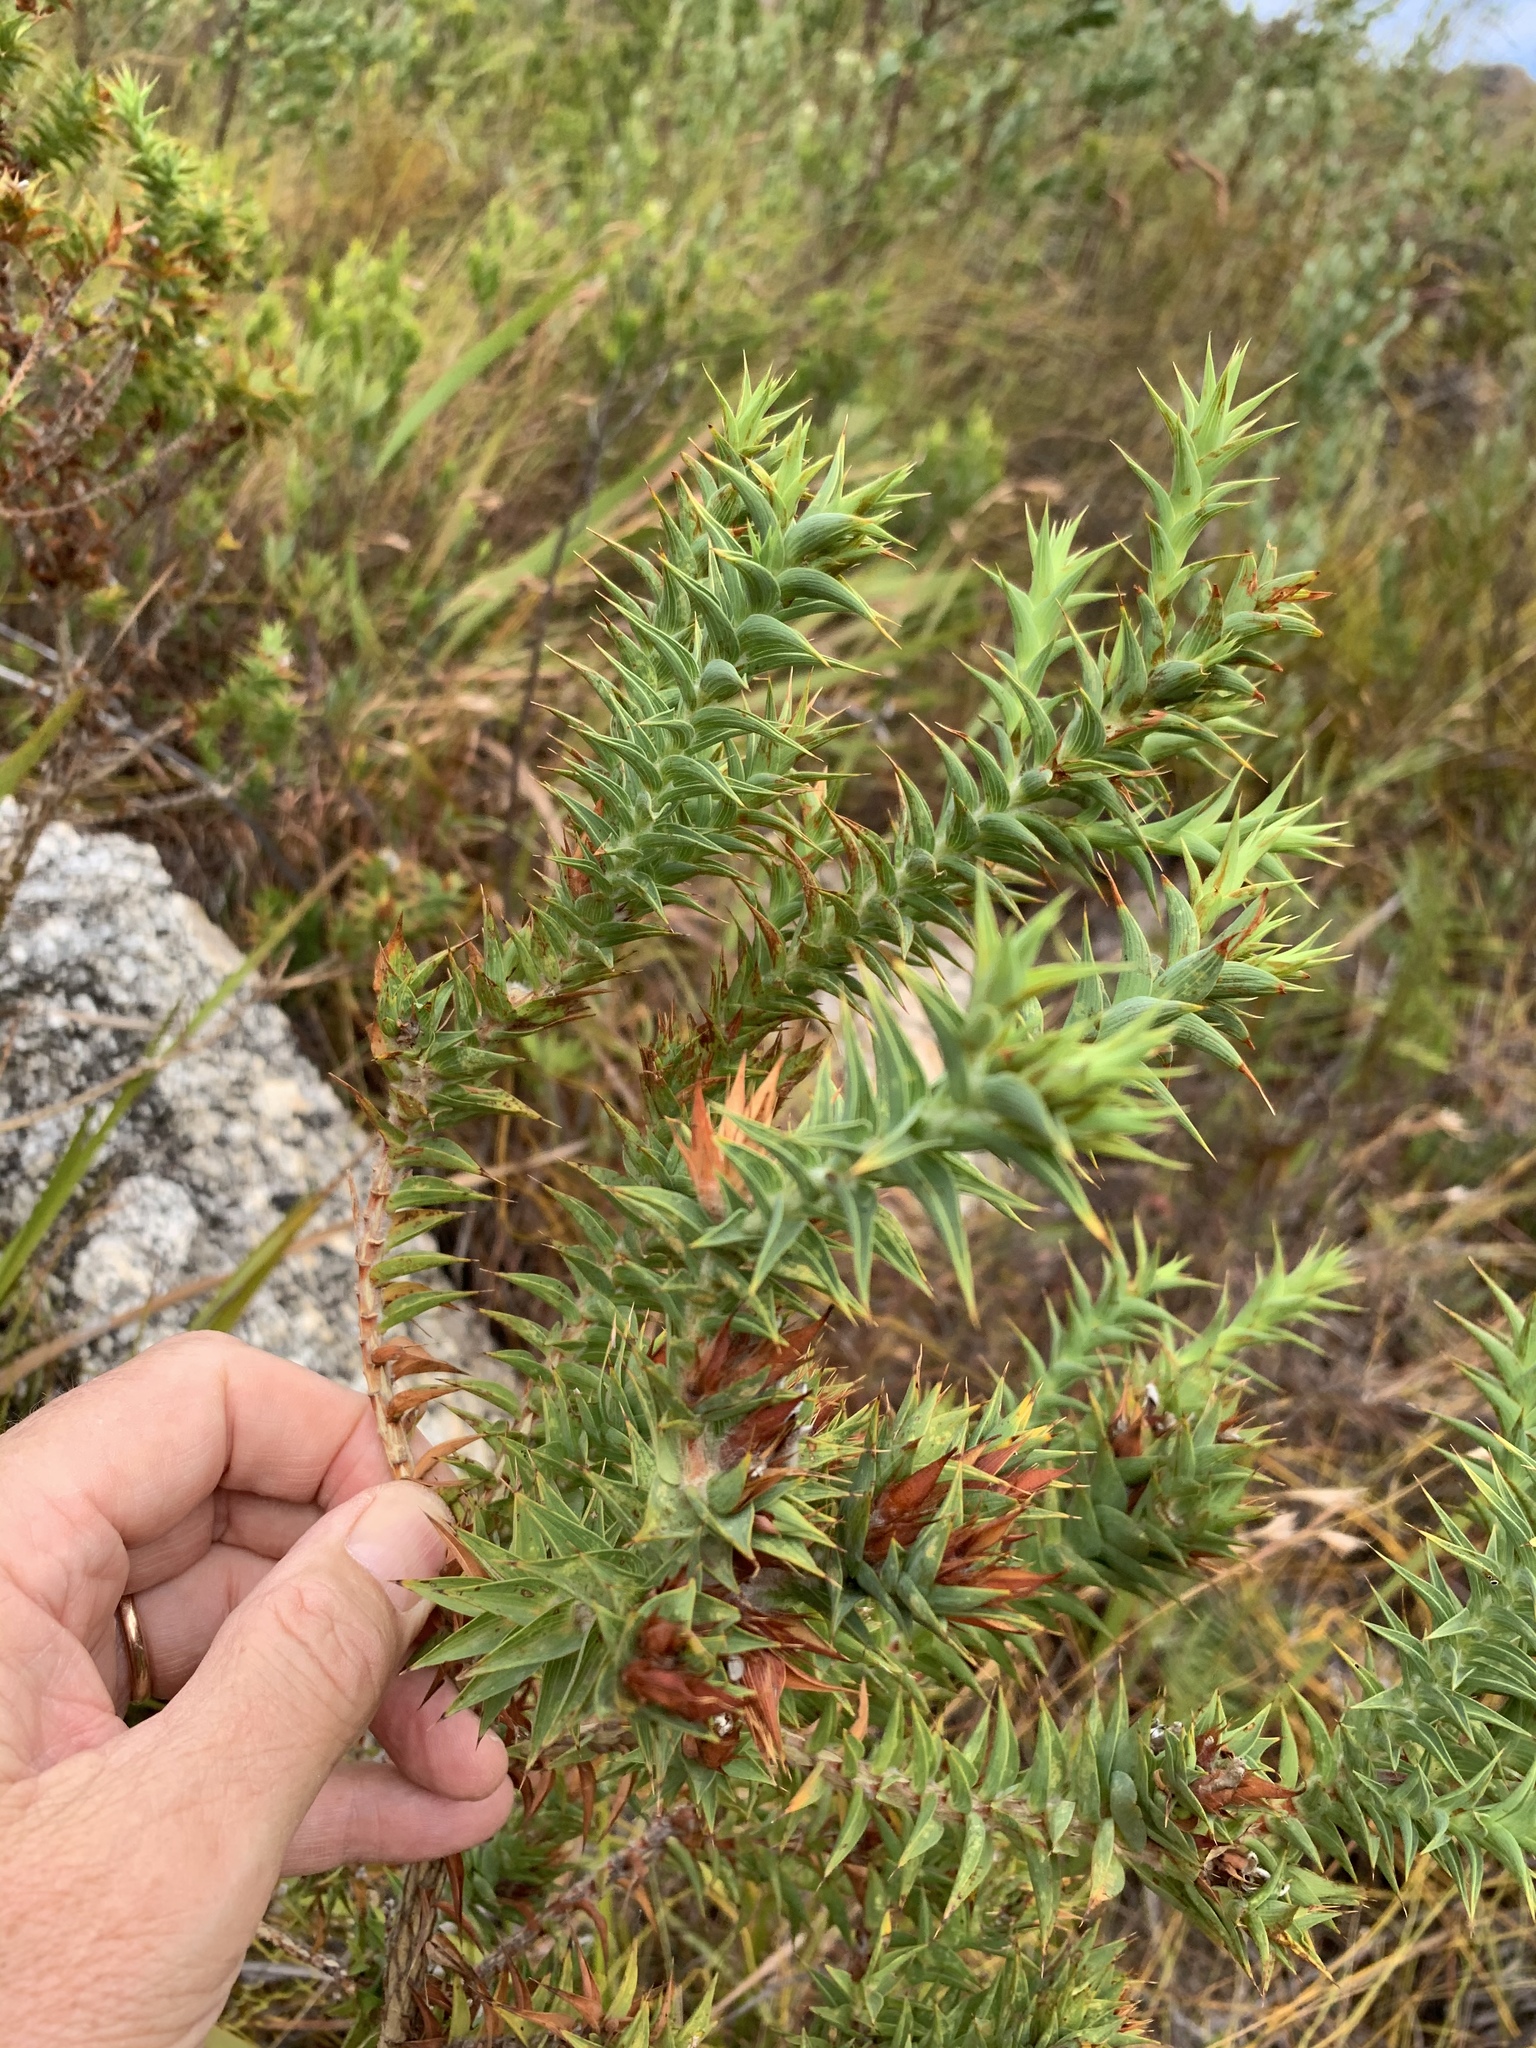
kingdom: Plantae
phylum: Tracheophyta
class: Magnoliopsida
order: Fabales
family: Fabaceae
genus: Aspalathus
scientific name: Aspalathus cordata
